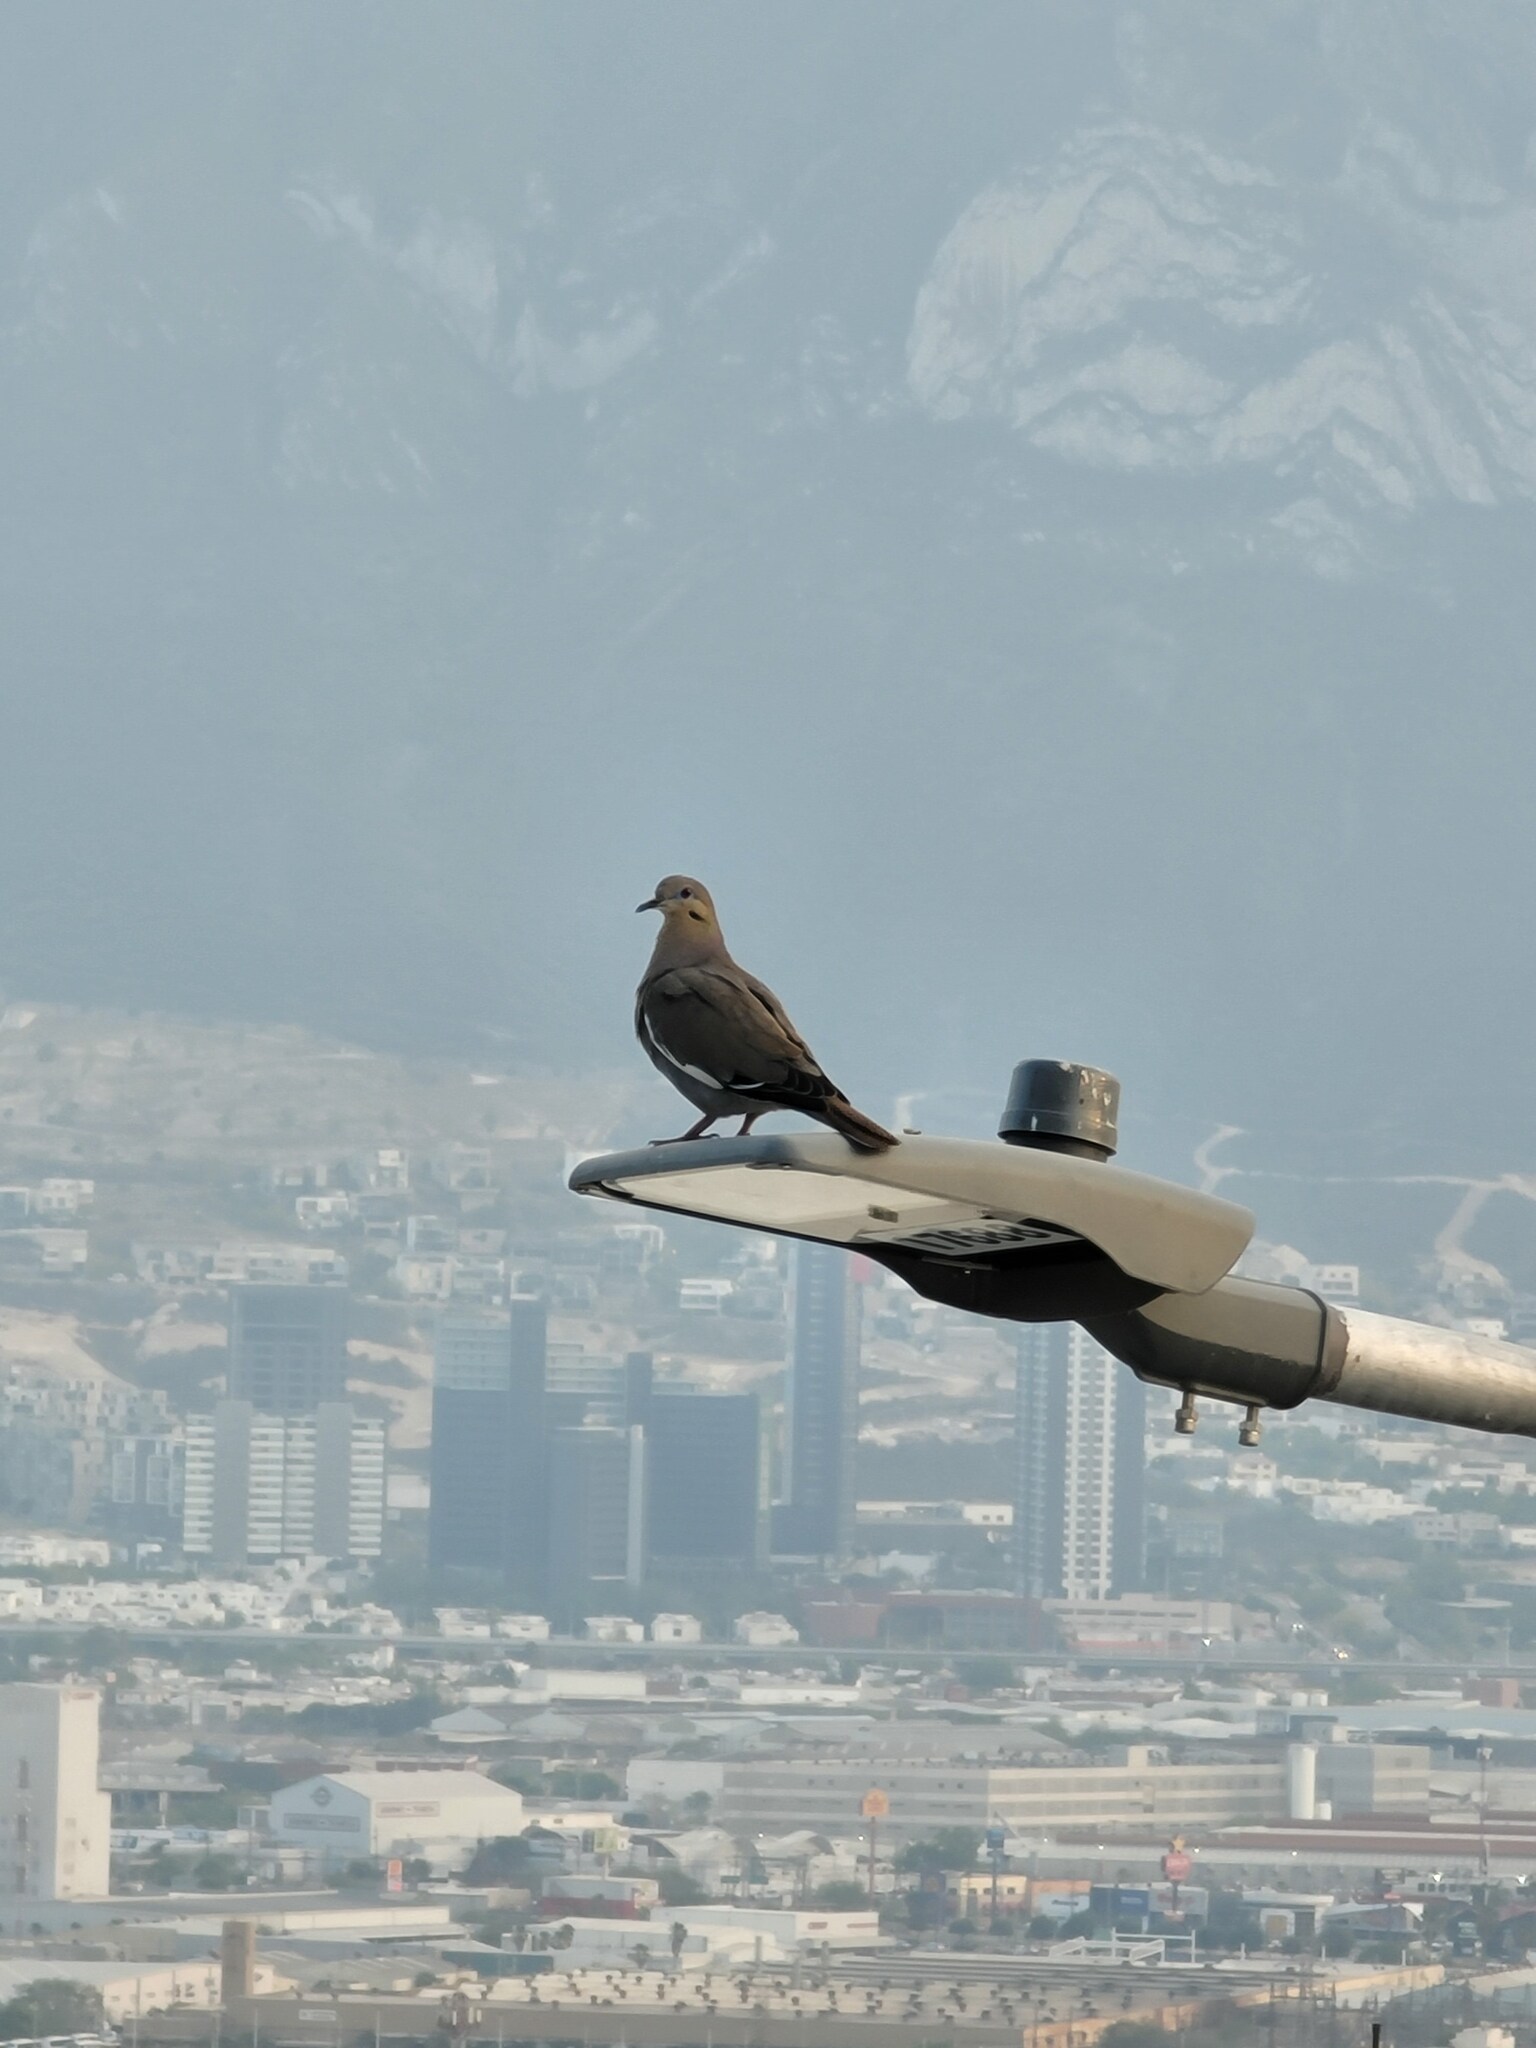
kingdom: Animalia
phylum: Chordata
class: Aves
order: Columbiformes
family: Columbidae
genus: Zenaida
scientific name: Zenaida asiatica
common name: White-winged dove
